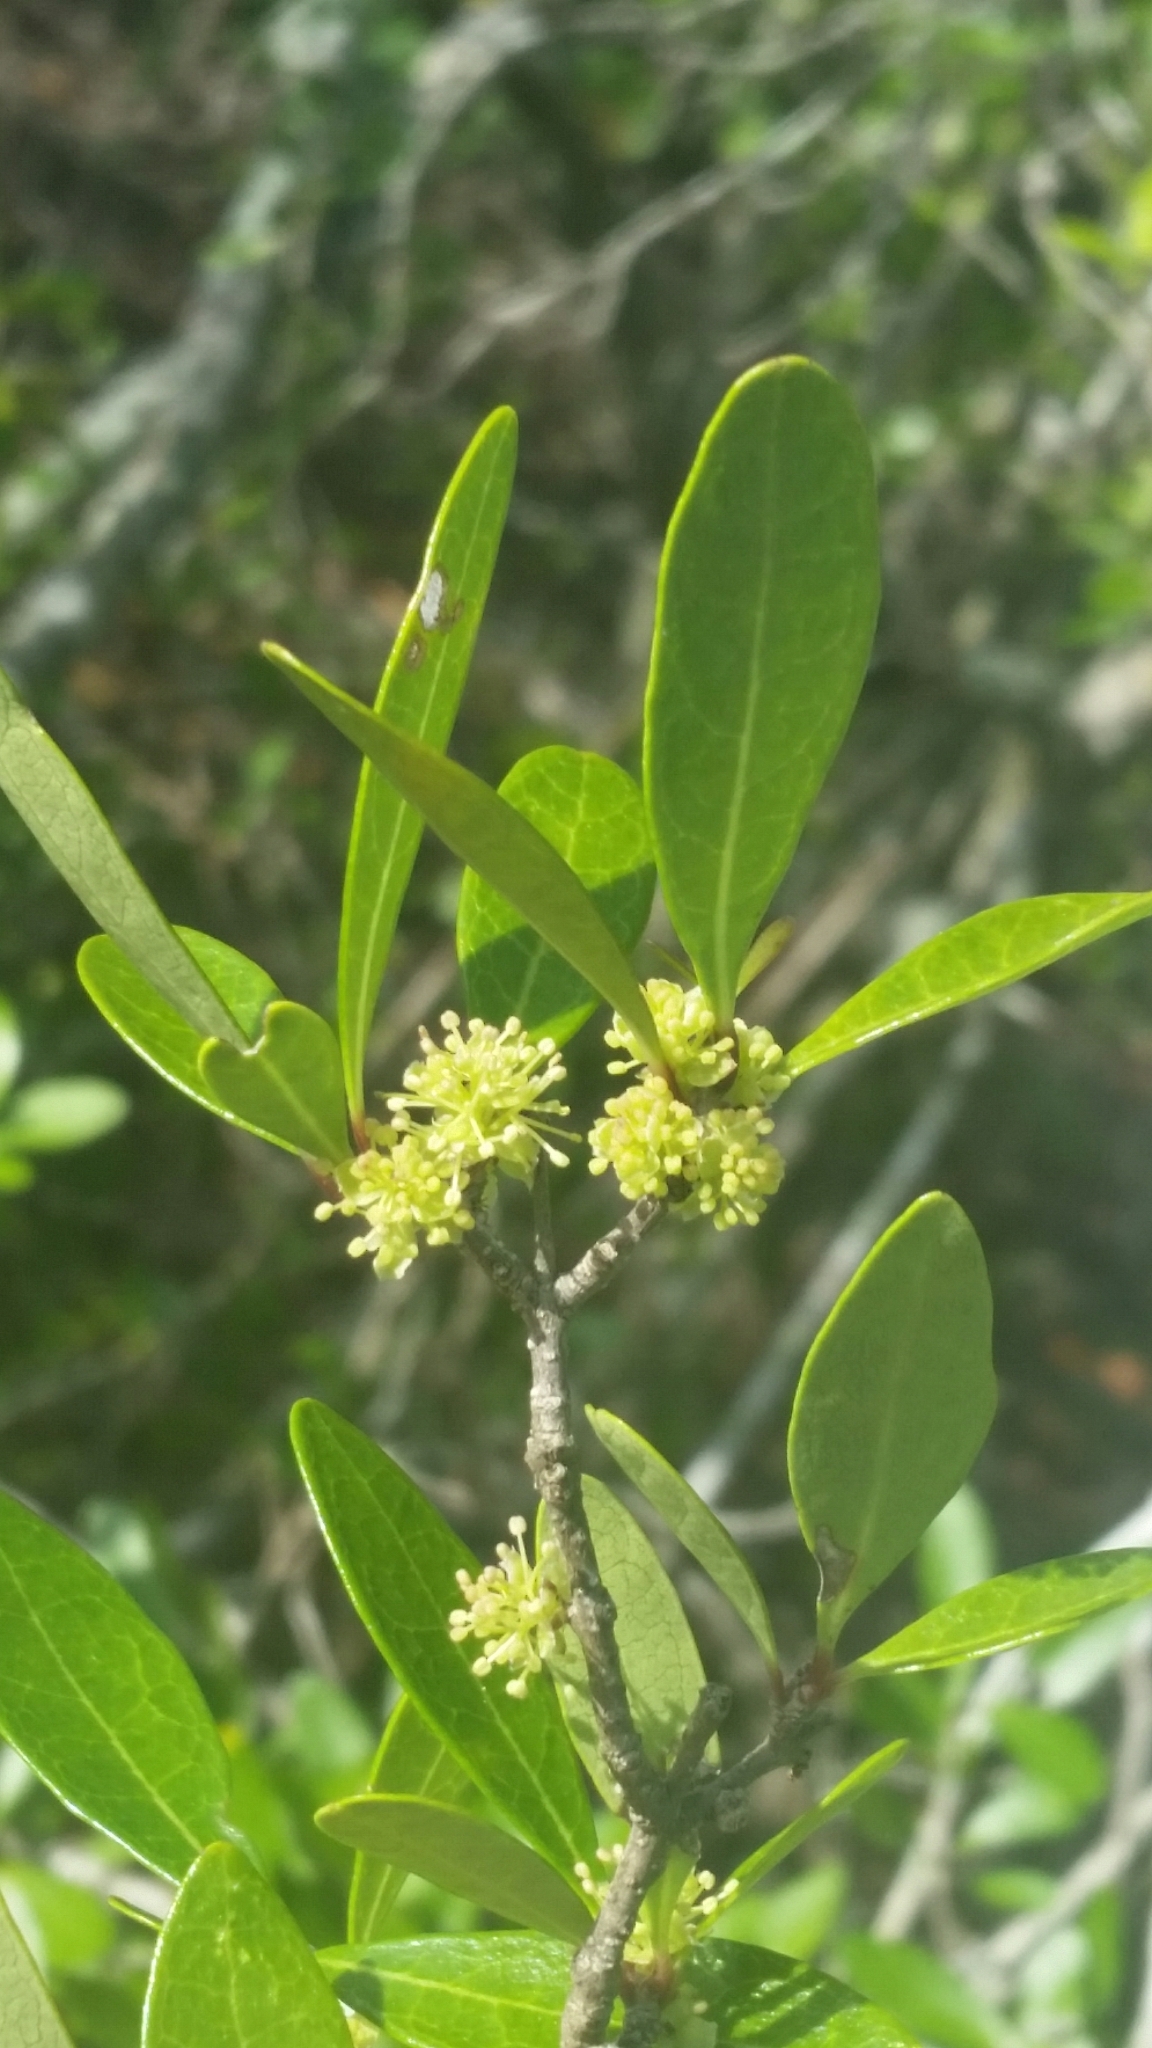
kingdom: Plantae
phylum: Tracheophyta
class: Magnoliopsida
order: Lamiales
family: Oleaceae
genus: Forestiera
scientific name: Forestiera segregata
